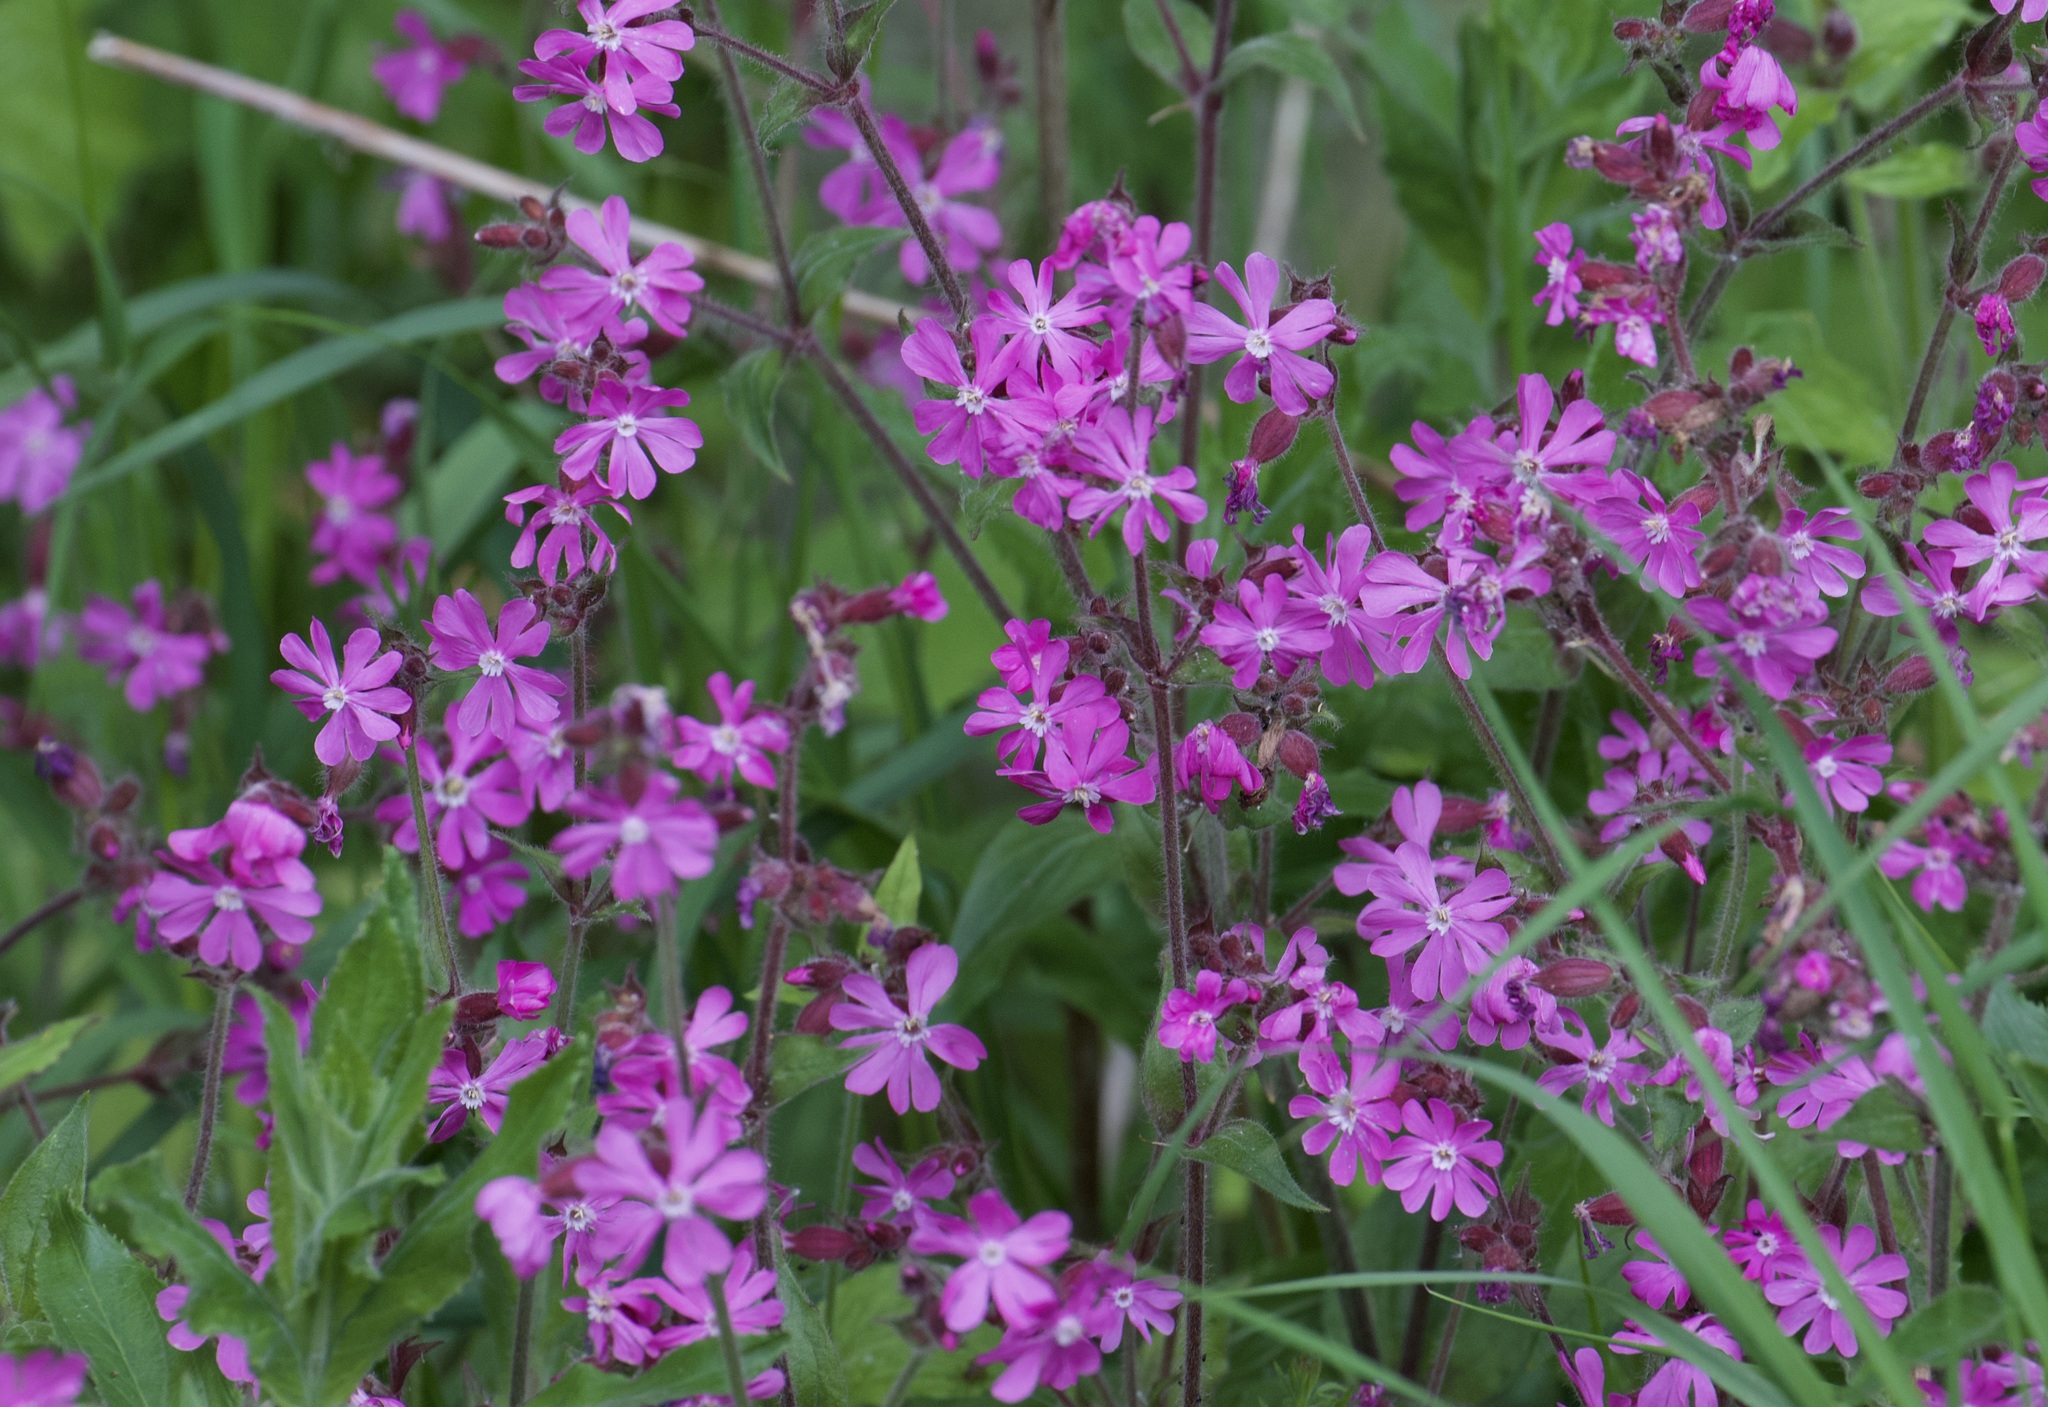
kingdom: Plantae
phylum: Tracheophyta
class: Magnoliopsida
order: Caryophyllales
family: Caryophyllaceae
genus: Silene
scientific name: Silene dioica
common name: Red campion
